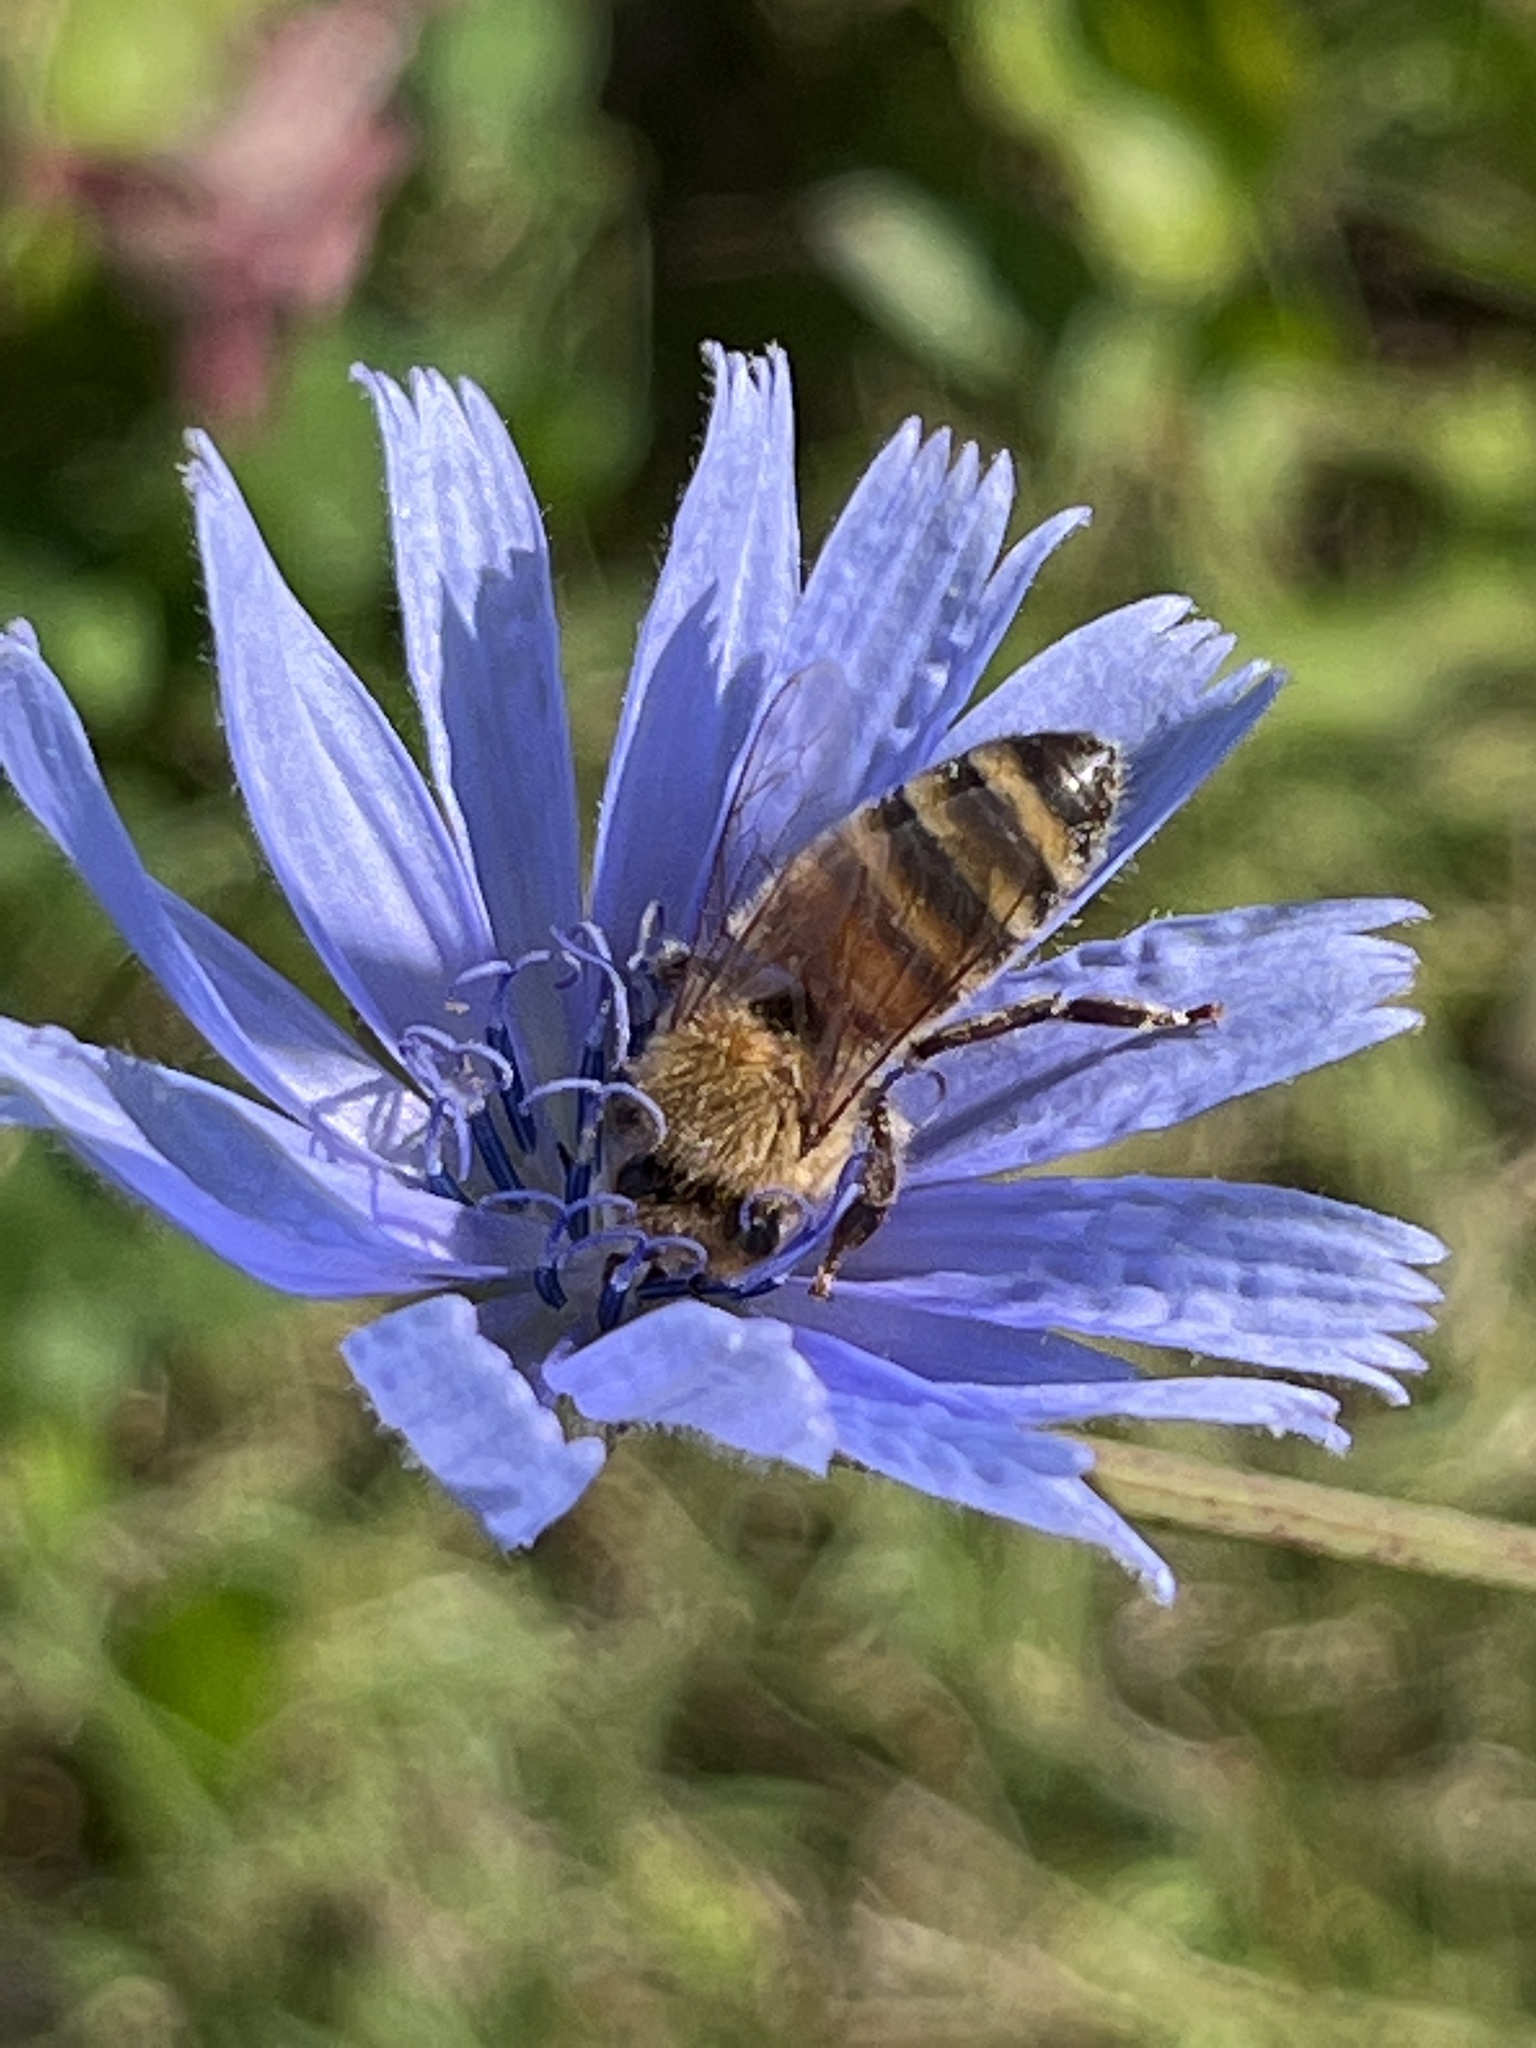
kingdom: Animalia
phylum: Arthropoda
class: Insecta
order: Hymenoptera
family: Apidae
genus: Apis
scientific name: Apis mellifera
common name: Honey bee
